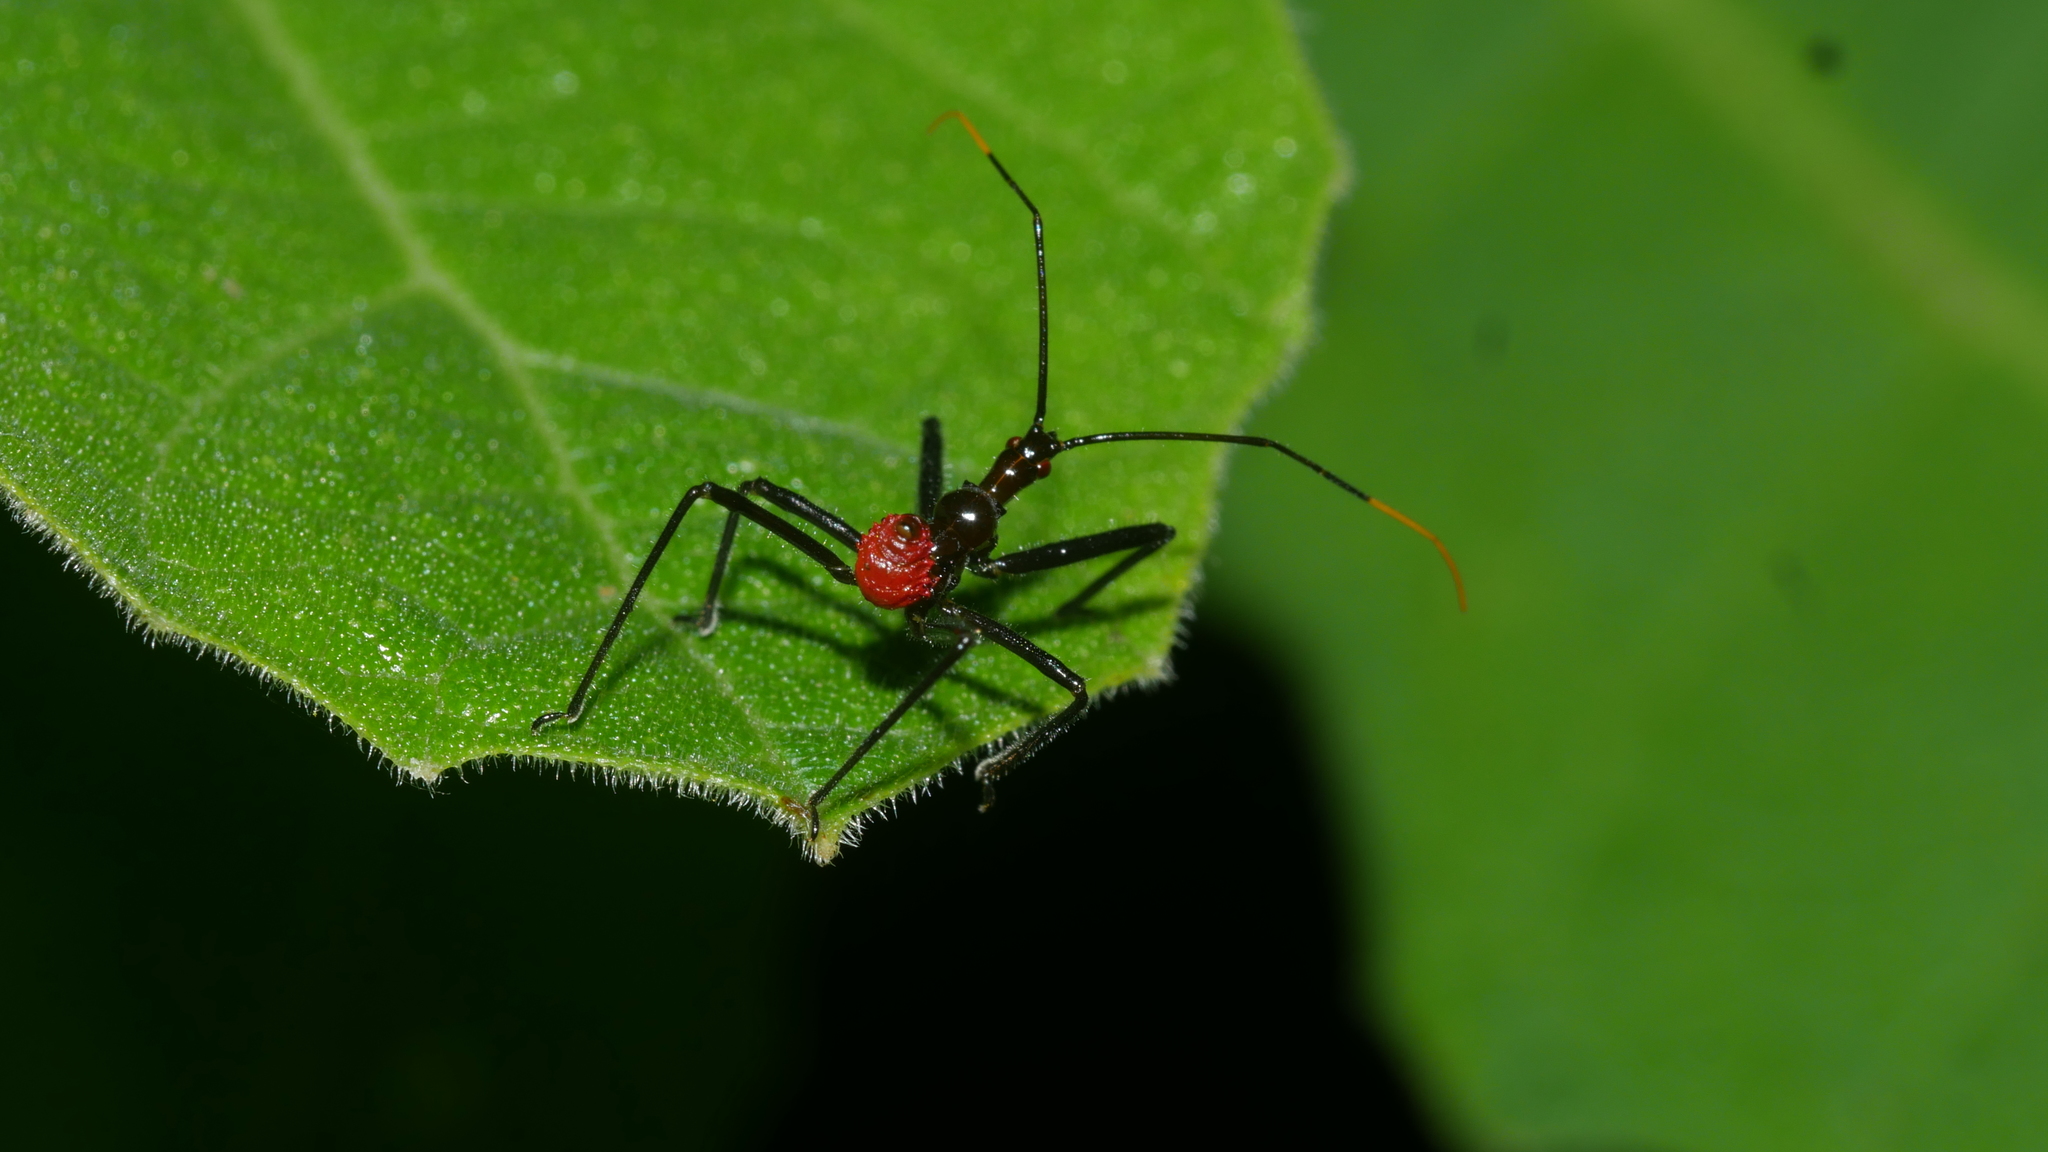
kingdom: Animalia
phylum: Arthropoda
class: Insecta
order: Hemiptera
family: Reduviidae
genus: Arilus
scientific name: Arilus cristatus
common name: North american wheel bug
